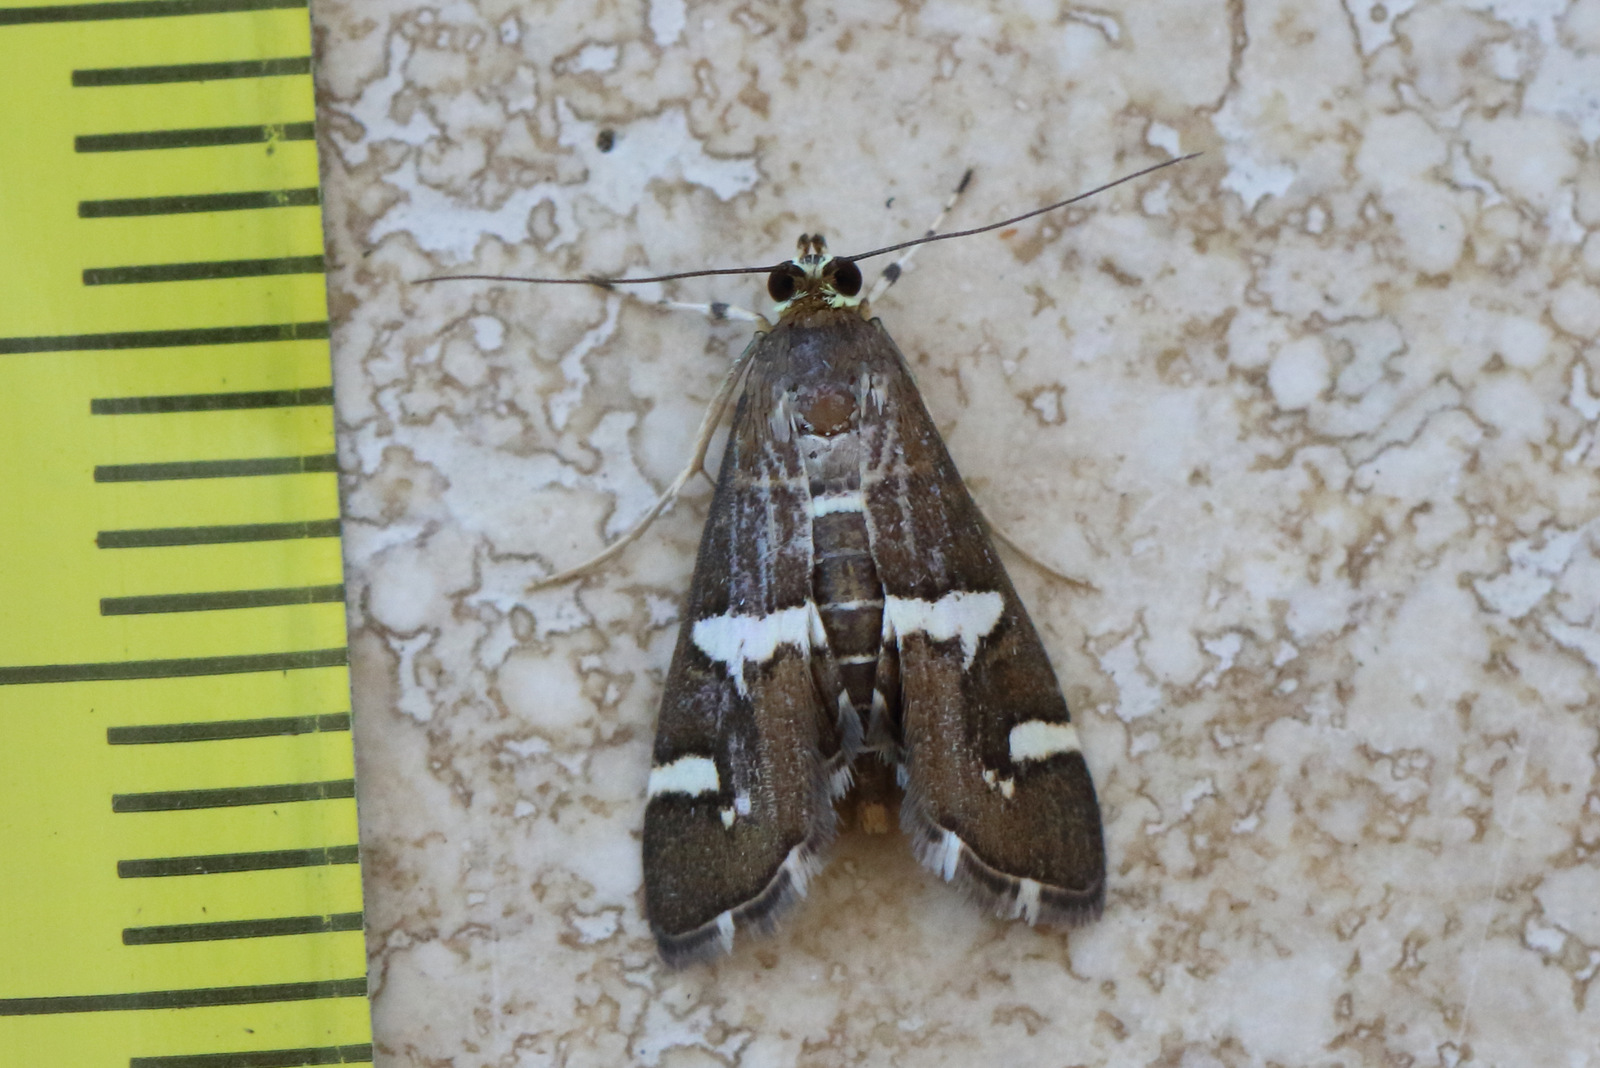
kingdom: Animalia
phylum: Arthropoda
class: Insecta
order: Lepidoptera
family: Crambidae
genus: Spoladea
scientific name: Spoladea recurvalis
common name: Beet webworm moth
